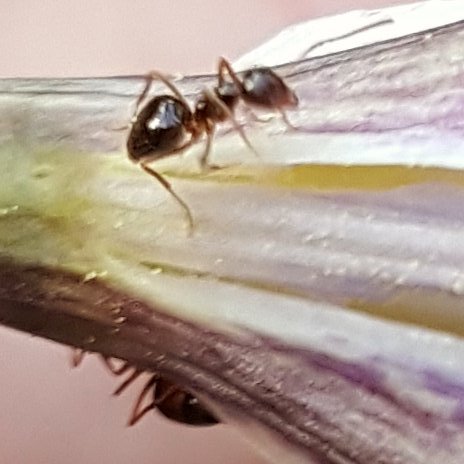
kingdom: Animalia
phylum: Arthropoda
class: Insecta
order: Hymenoptera
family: Formicidae
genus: Prenolepis
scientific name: Prenolepis imparis
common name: Small honey ant
